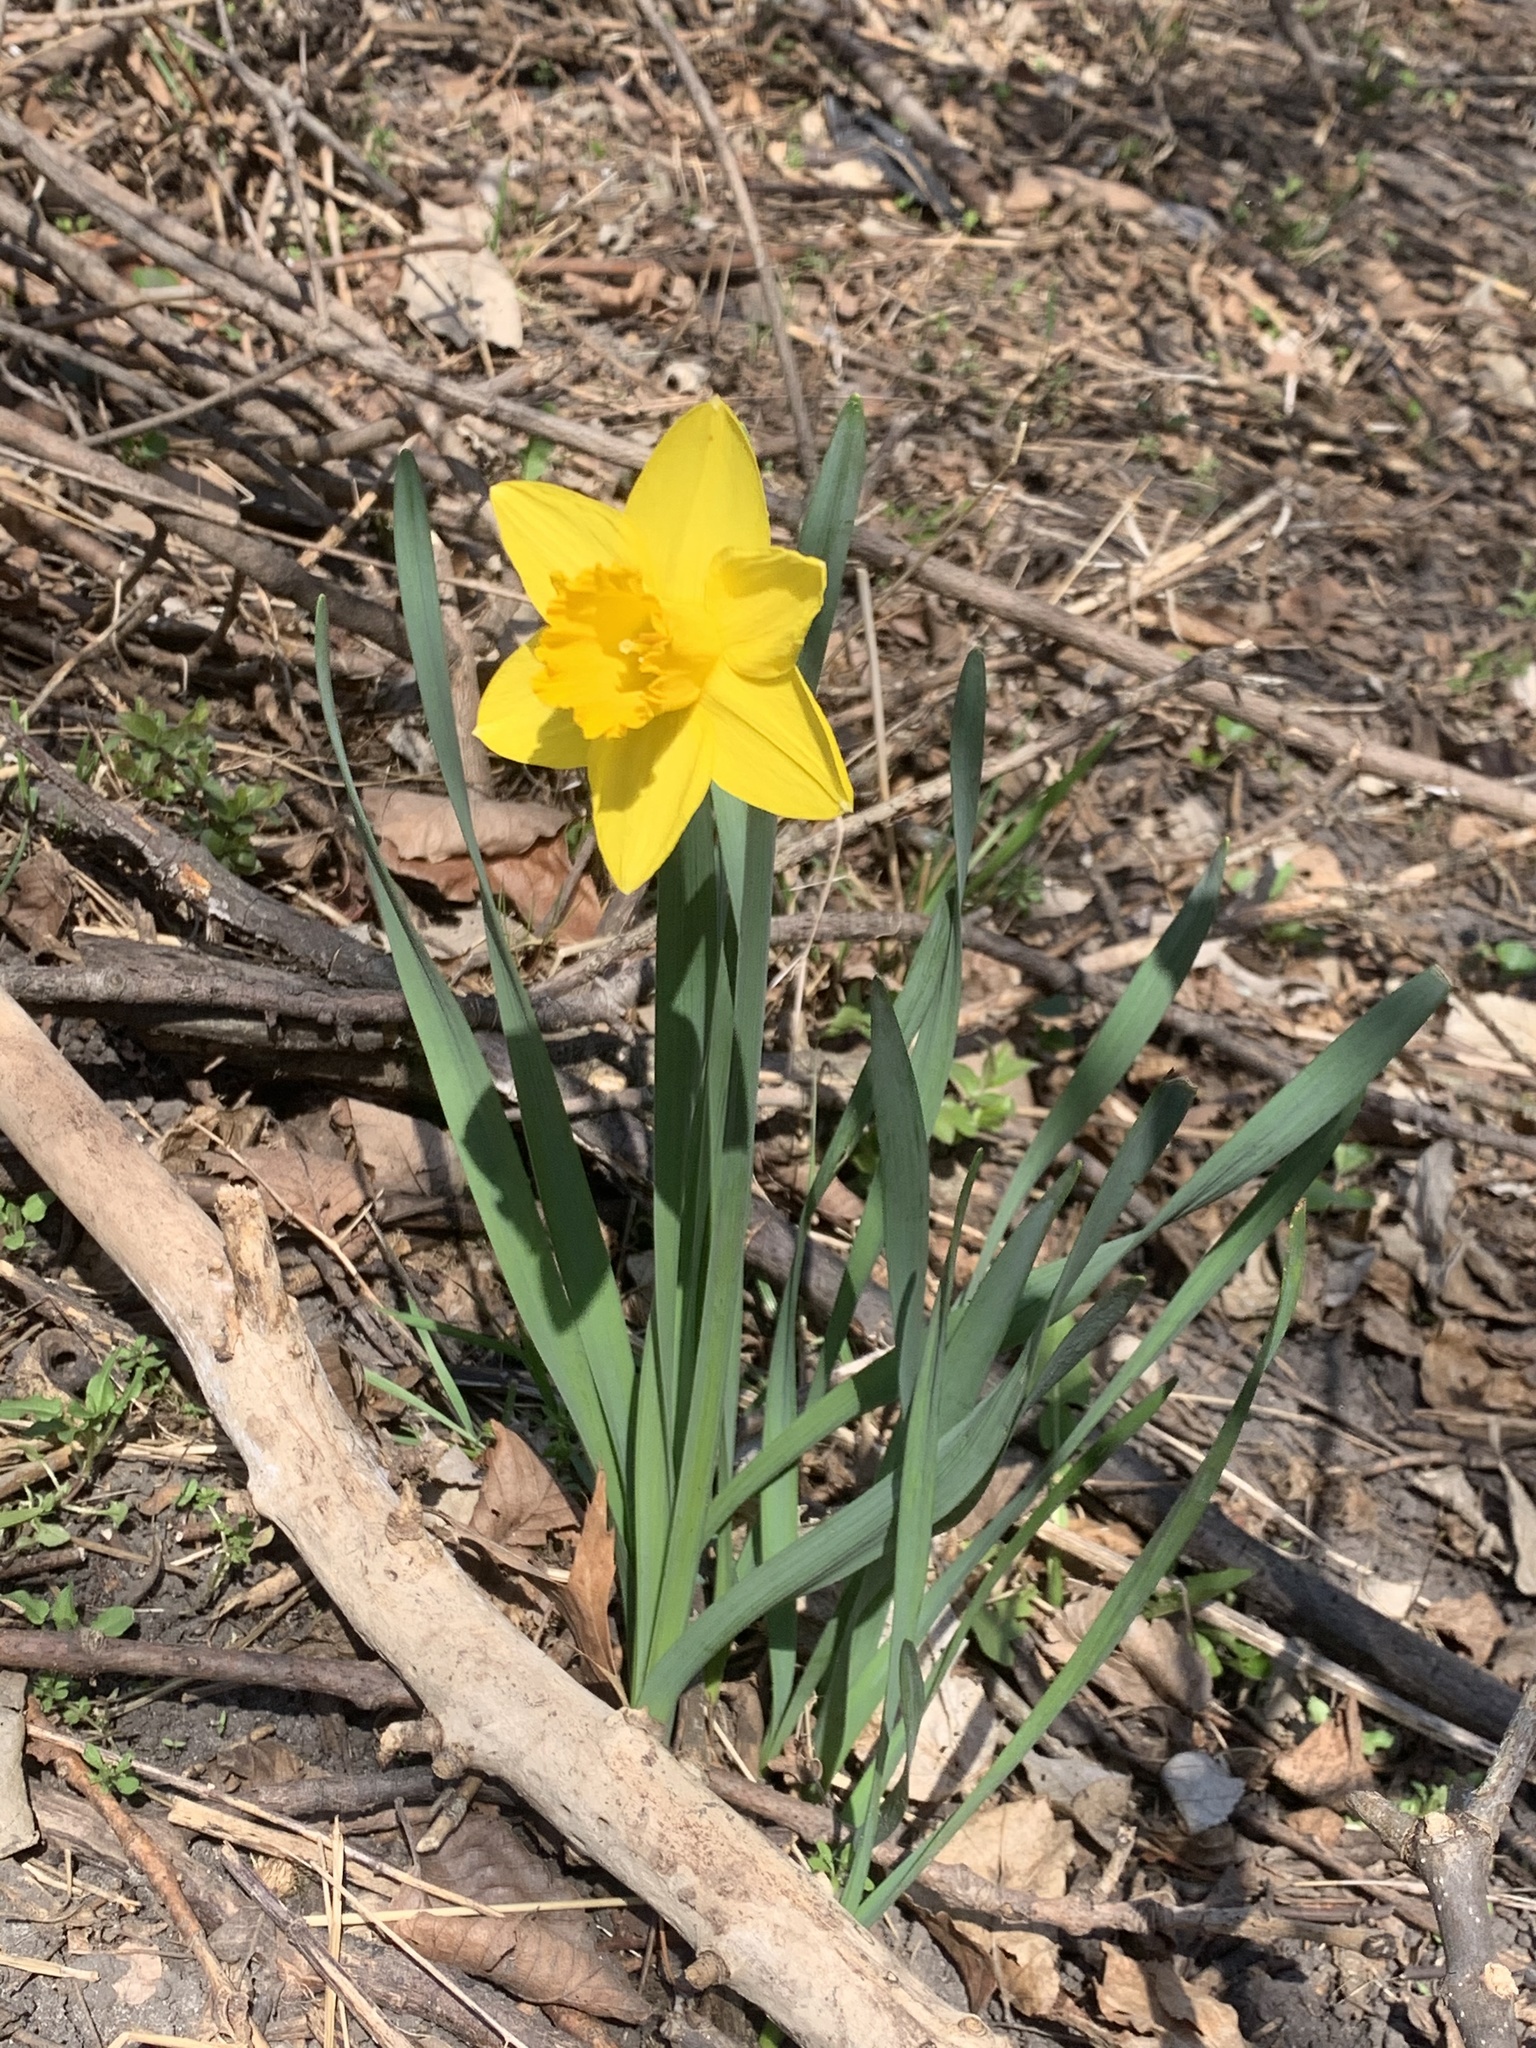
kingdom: Plantae
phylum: Tracheophyta
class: Liliopsida
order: Asparagales
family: Amaryllidaceae
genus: Narcissus
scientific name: Narcissus pseudonarcissus
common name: Daffodil
